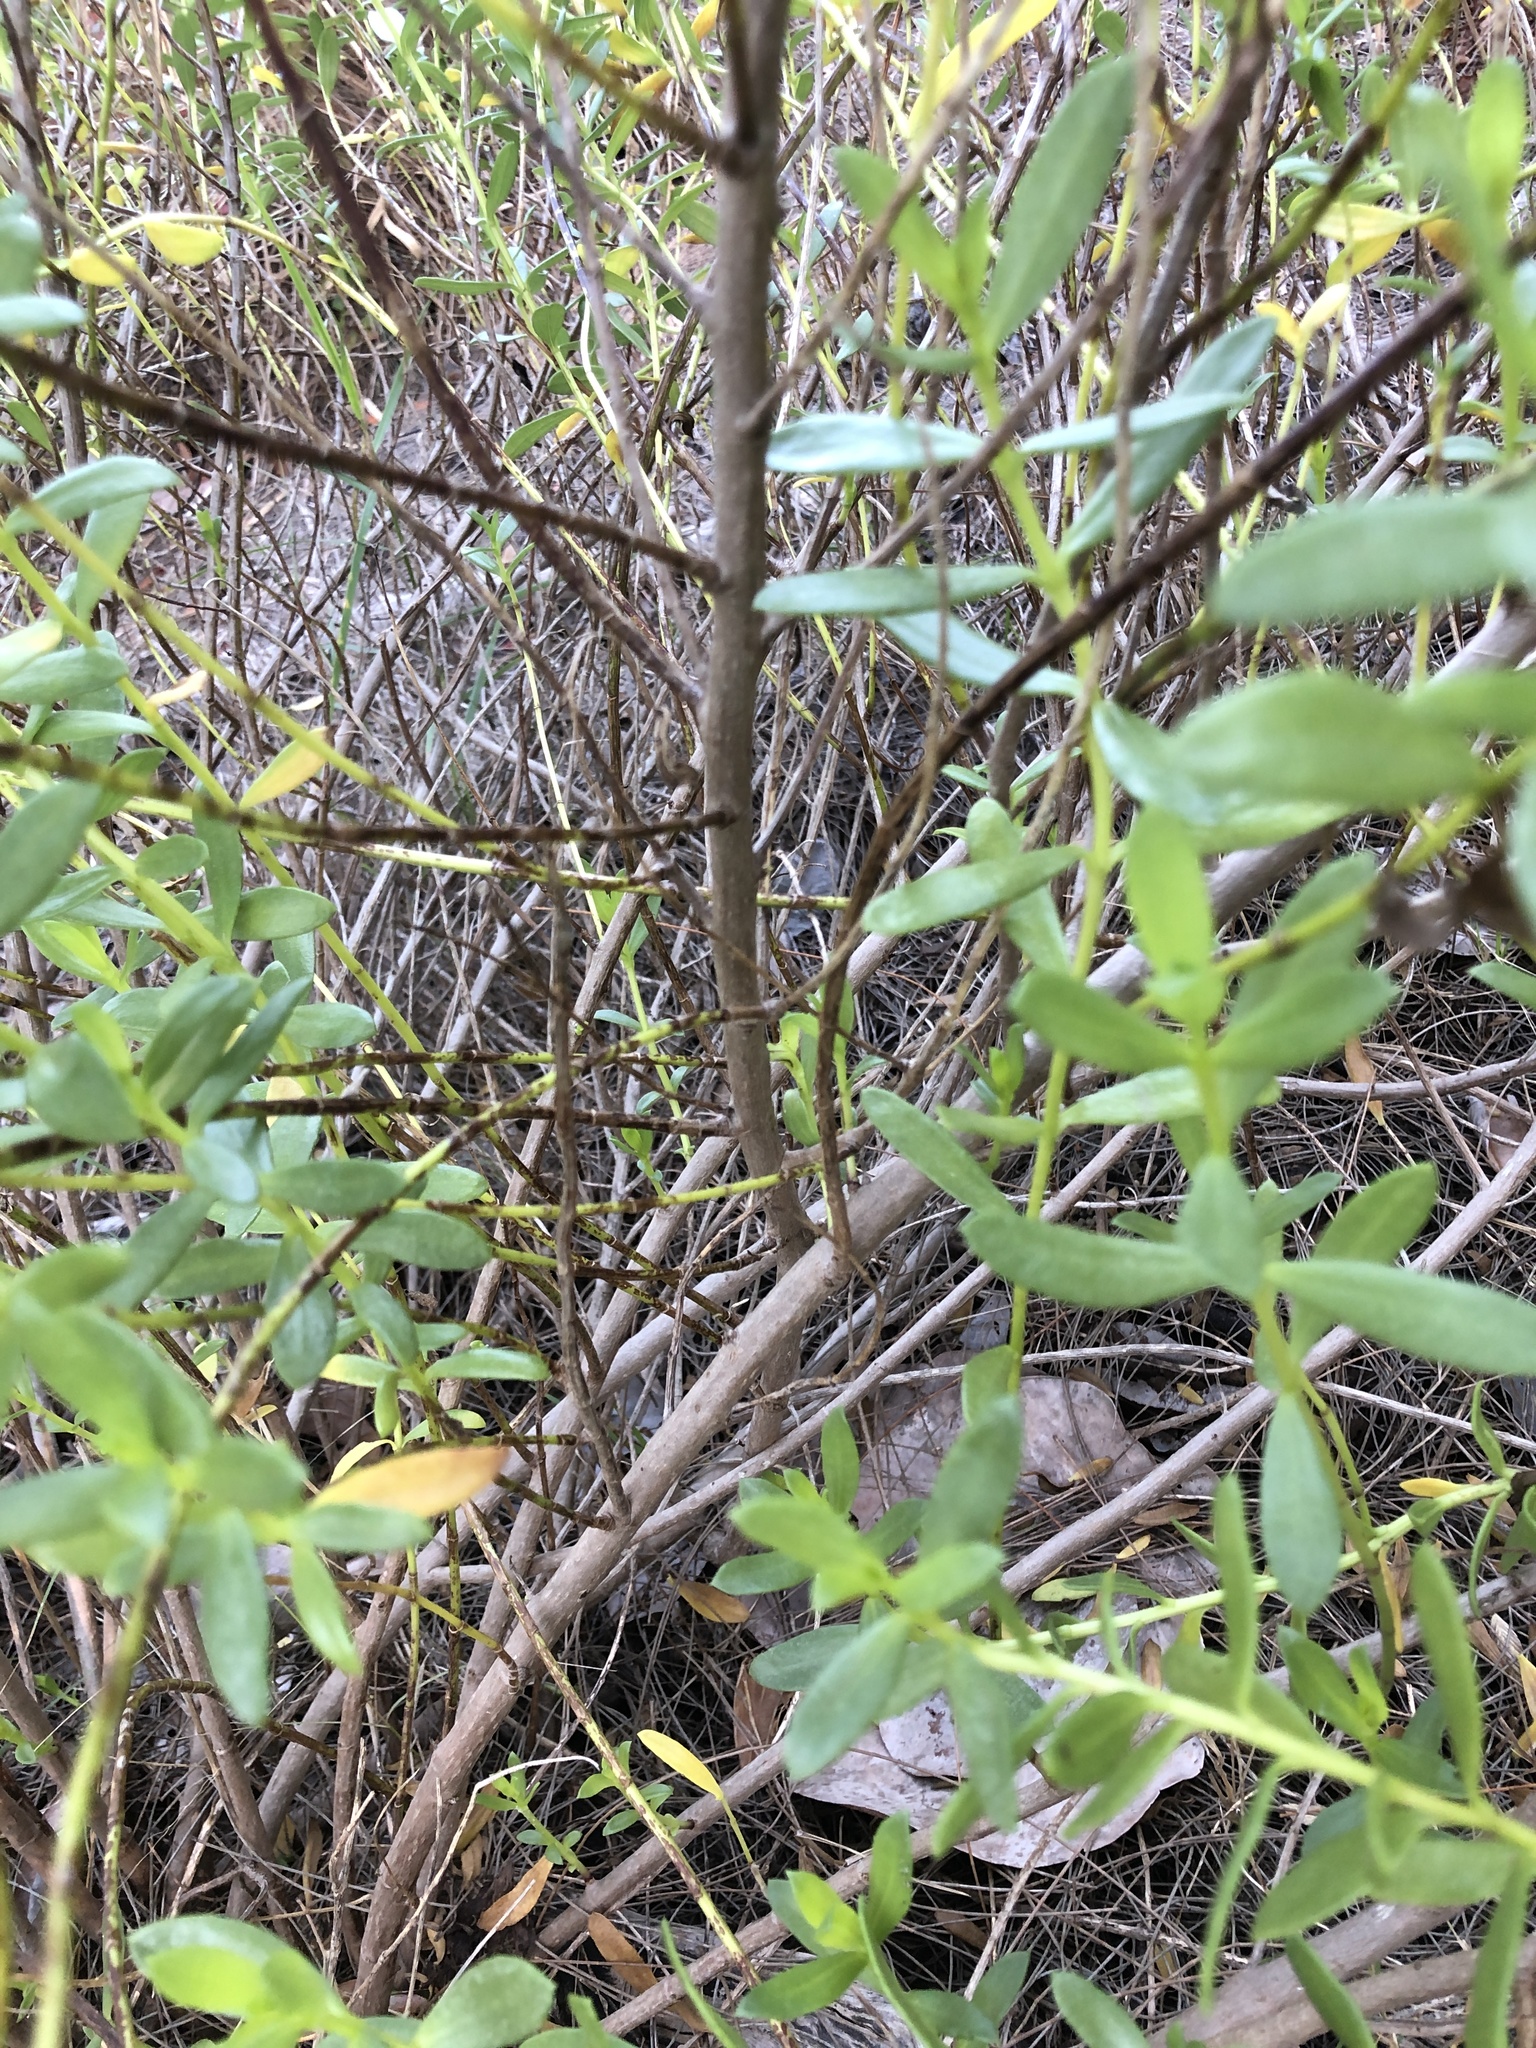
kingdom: Plantae
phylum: Tracheophyta
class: Magnoliopsida
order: Asterales
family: Asteraceae
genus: Iva
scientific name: Iva imbricata
